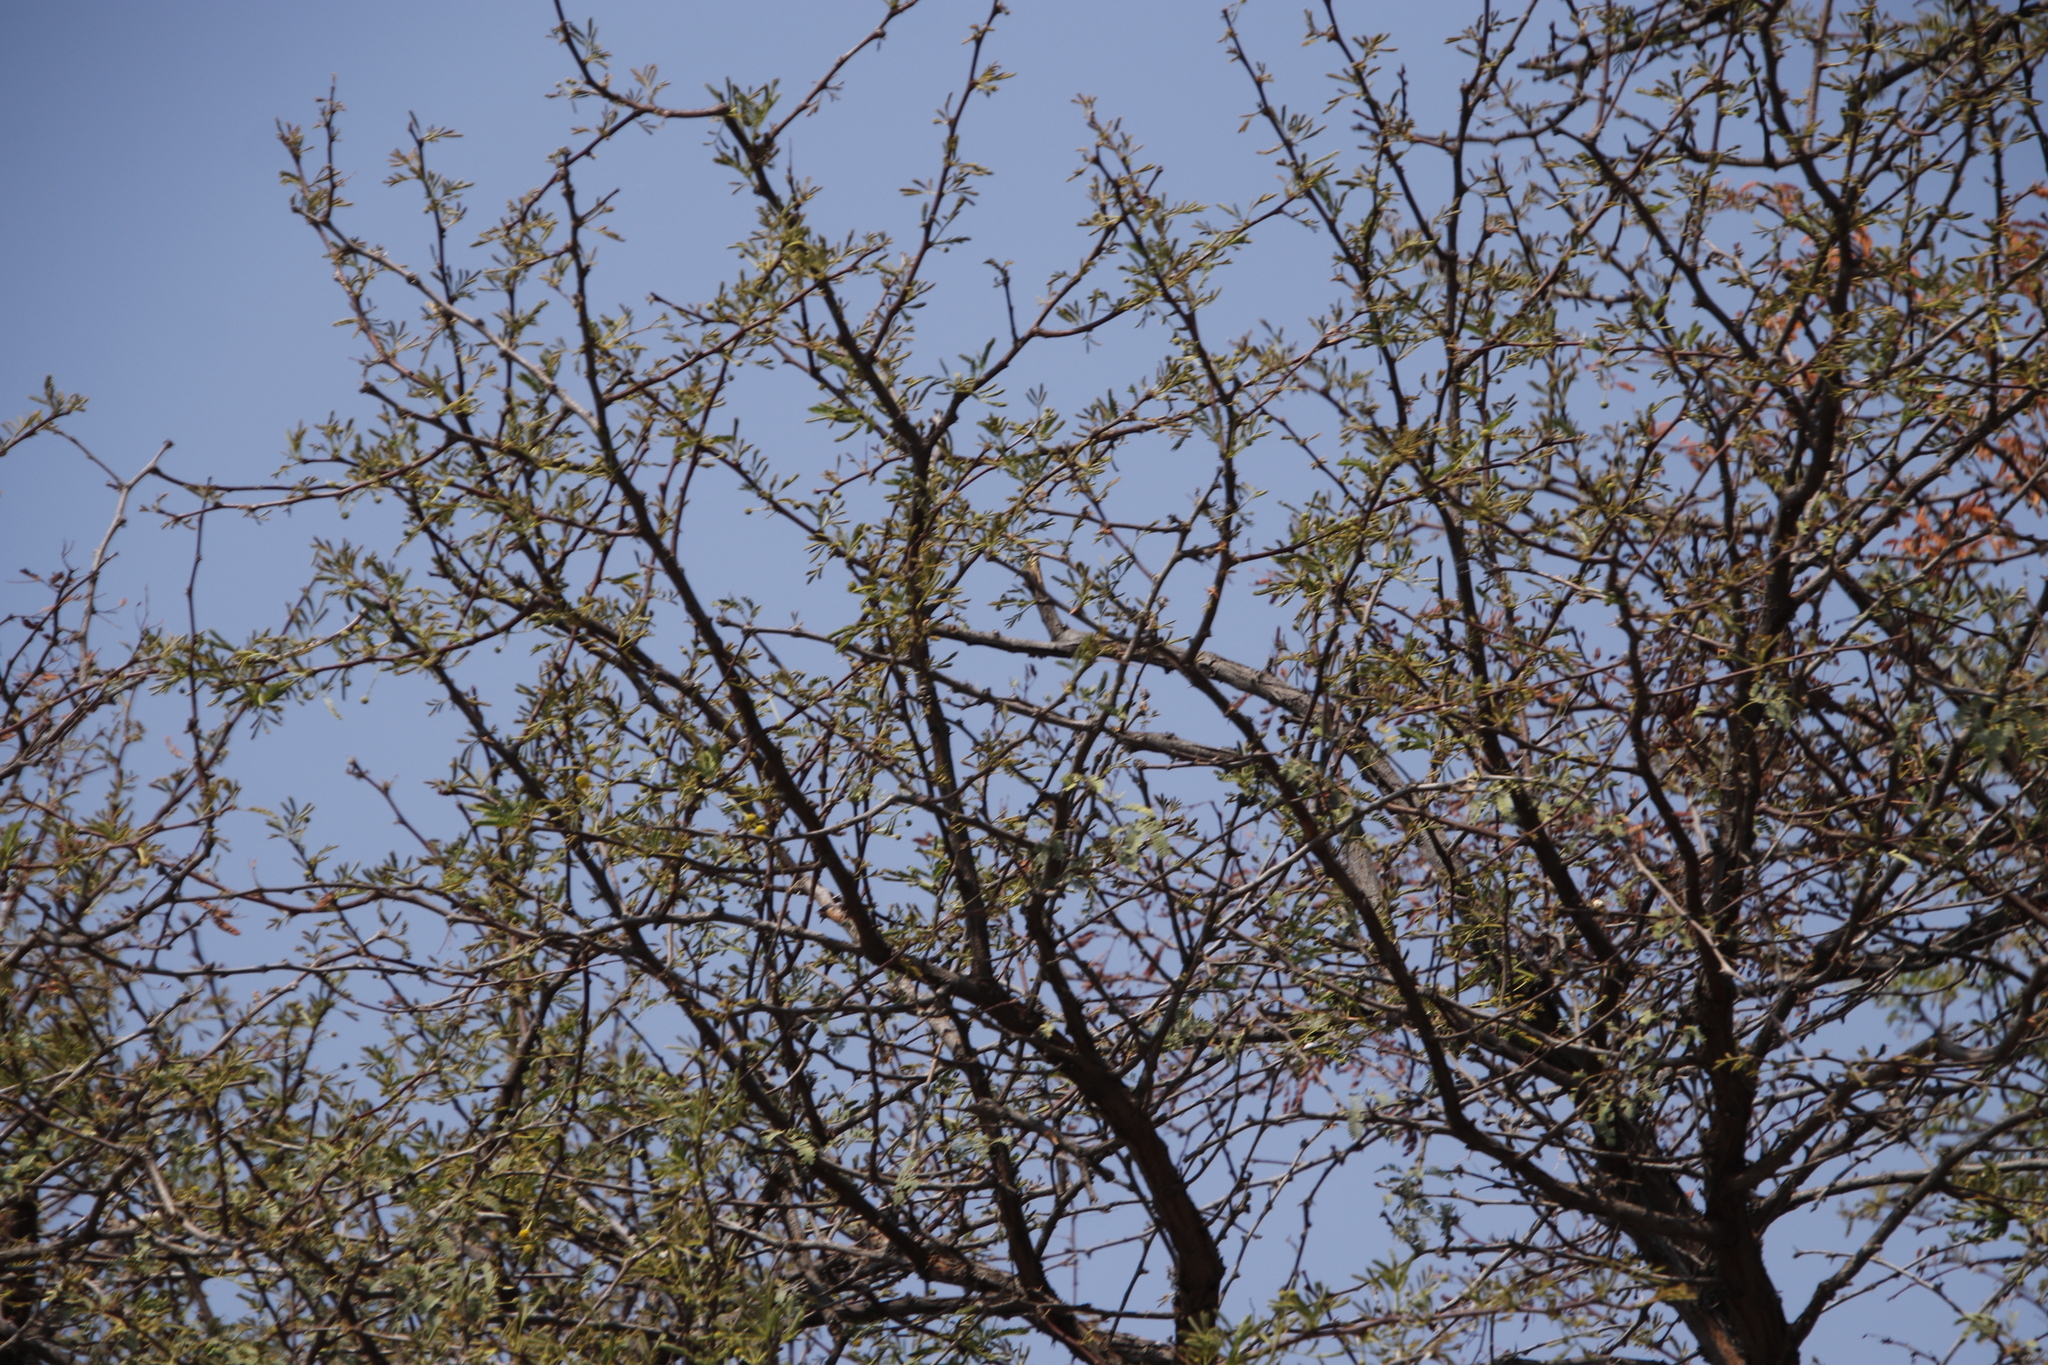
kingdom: Plantae
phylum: Tracheophyta
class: Magnoliopsida
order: Fabales
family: Fabaceae
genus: Vachellia
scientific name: Vachellia erioloba
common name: Camel thorn
